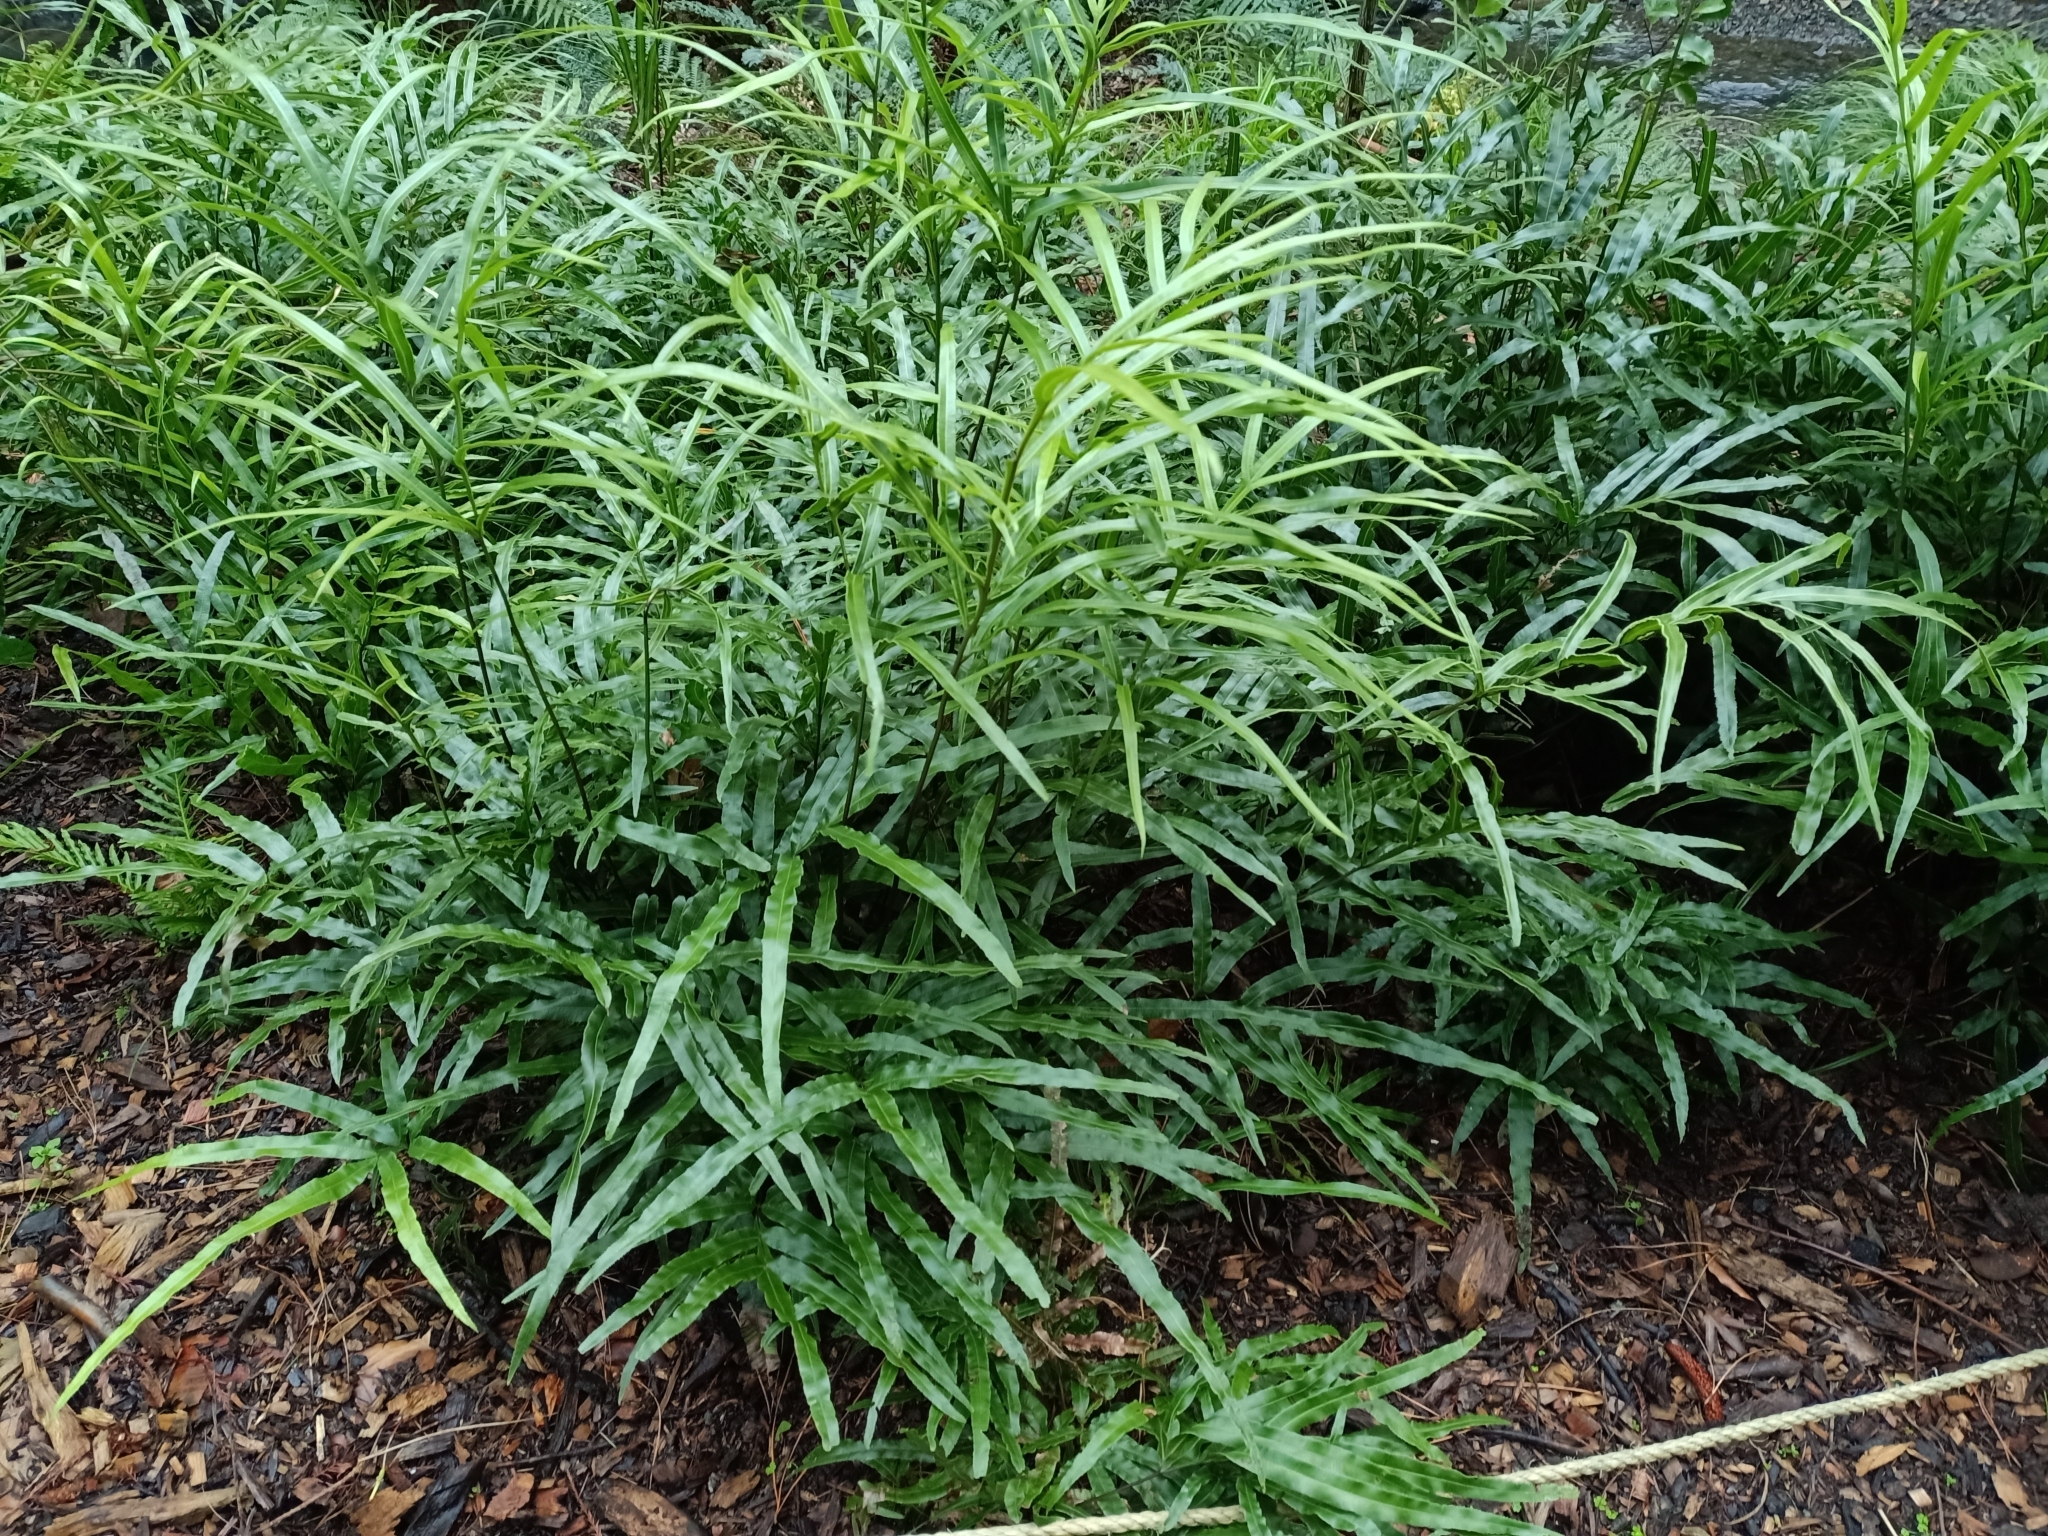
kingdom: Plantae
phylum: Tracheophyta
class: Polypodiopsida
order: Polypodiales
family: Pteridaceae
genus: Pteris
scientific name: Pteris cretica
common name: Ribbon fern
